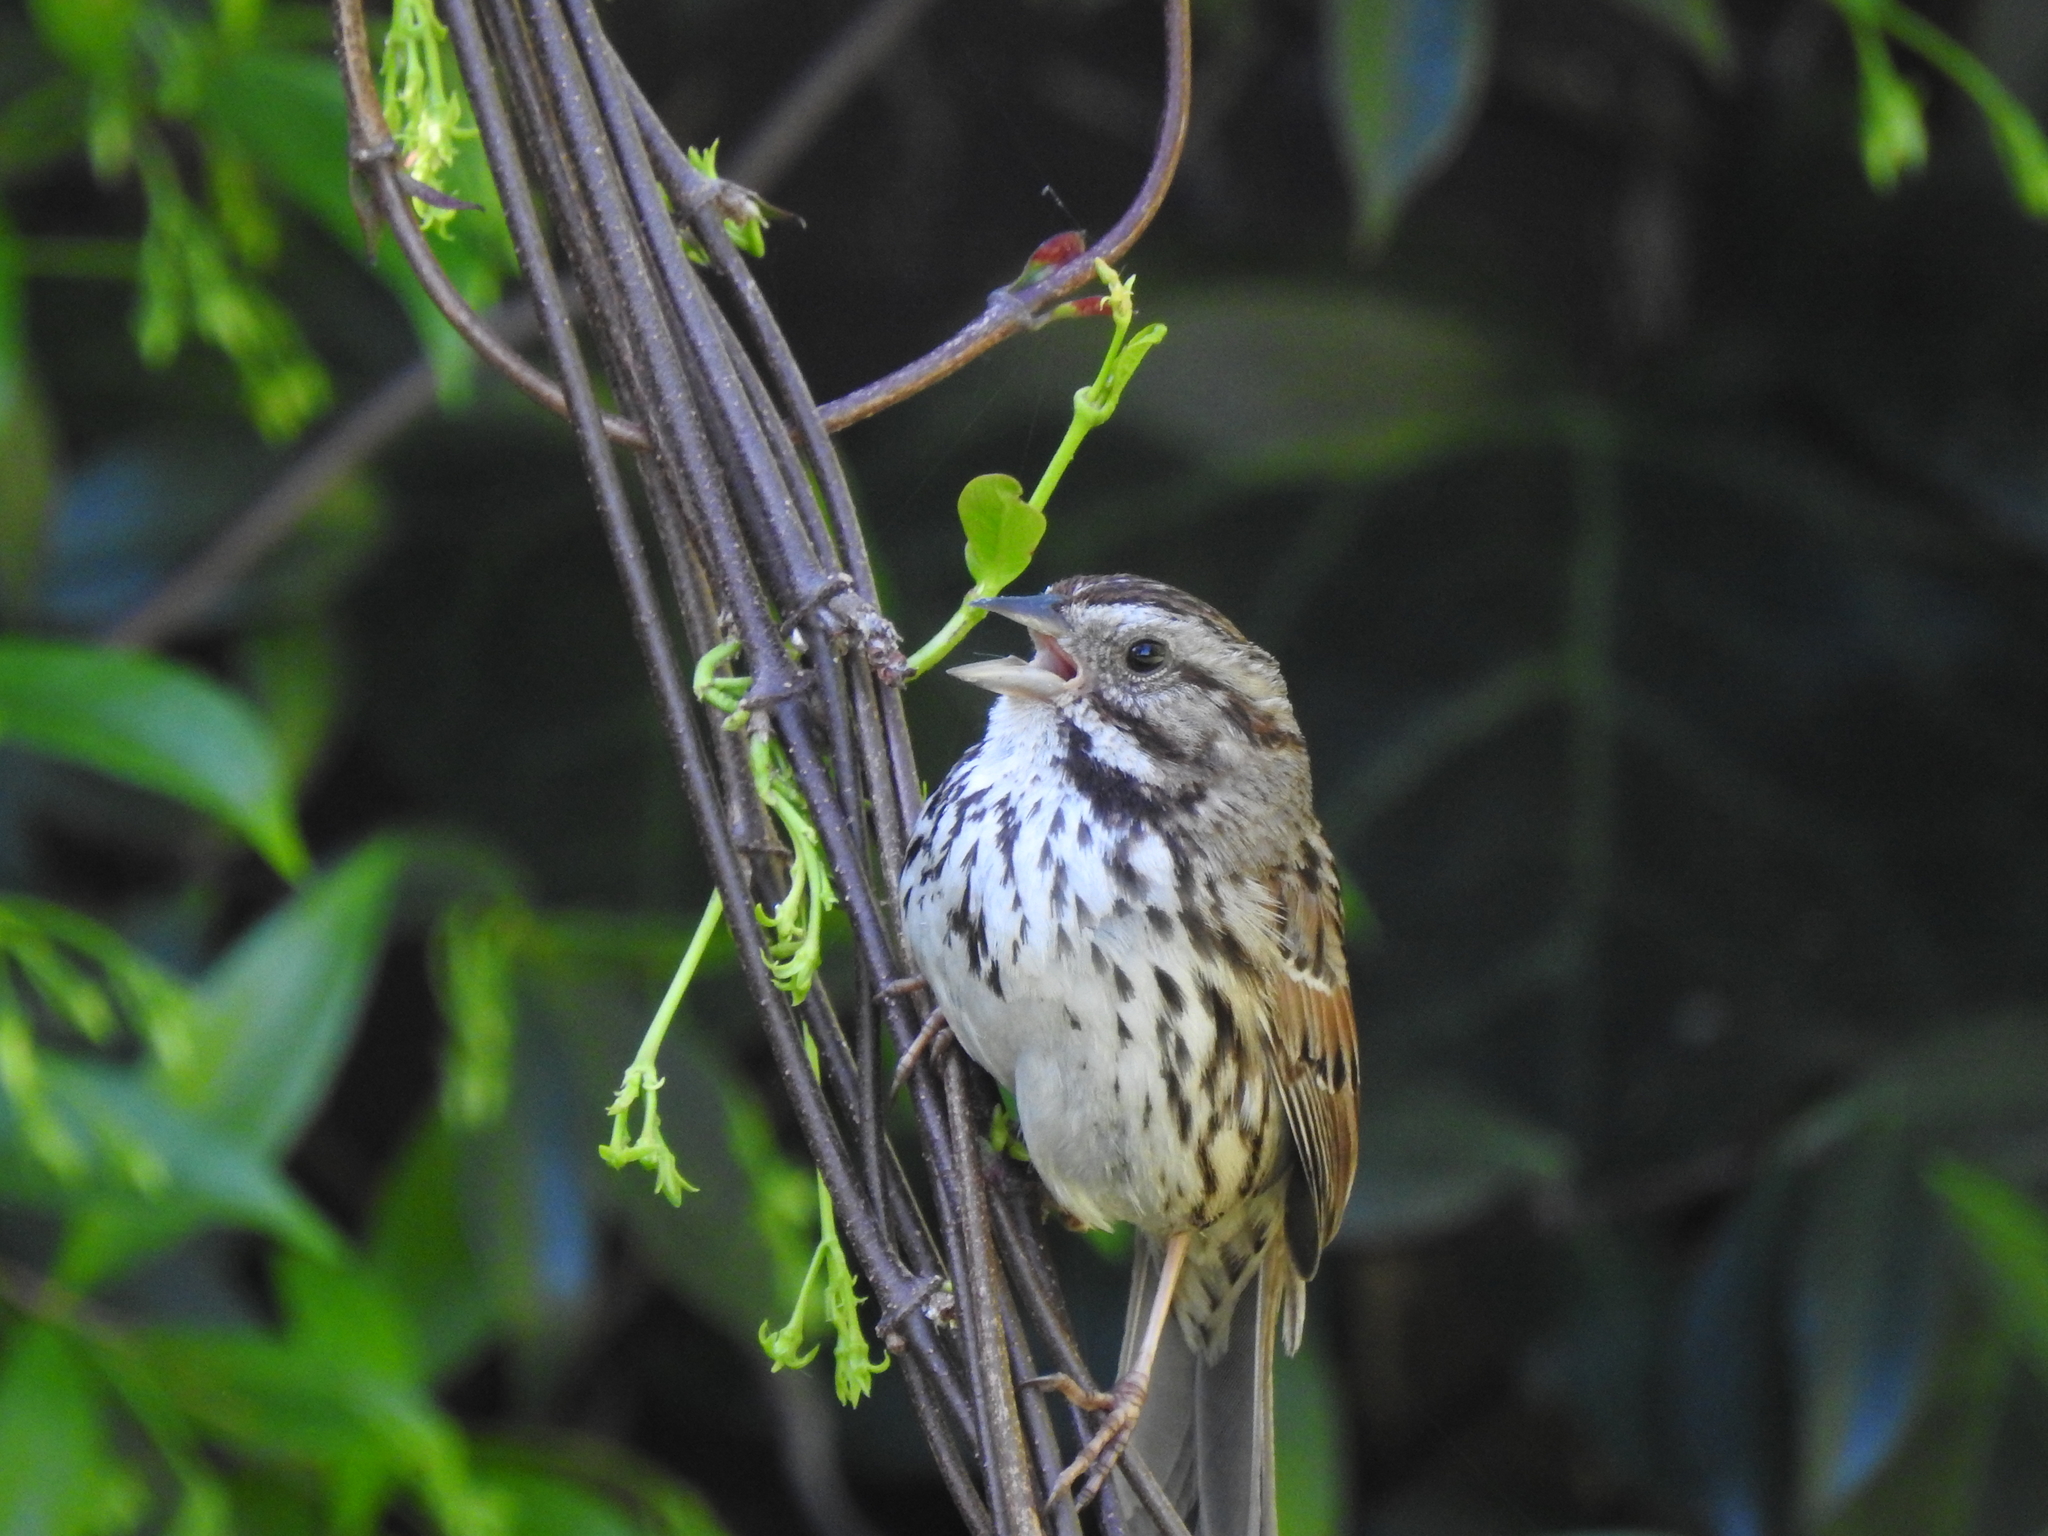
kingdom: Animalia
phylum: Chordata
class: Aves
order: Passeriformes
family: Passerellidae
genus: Melospiza
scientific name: Melospiza melodia
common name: Song sparrow
